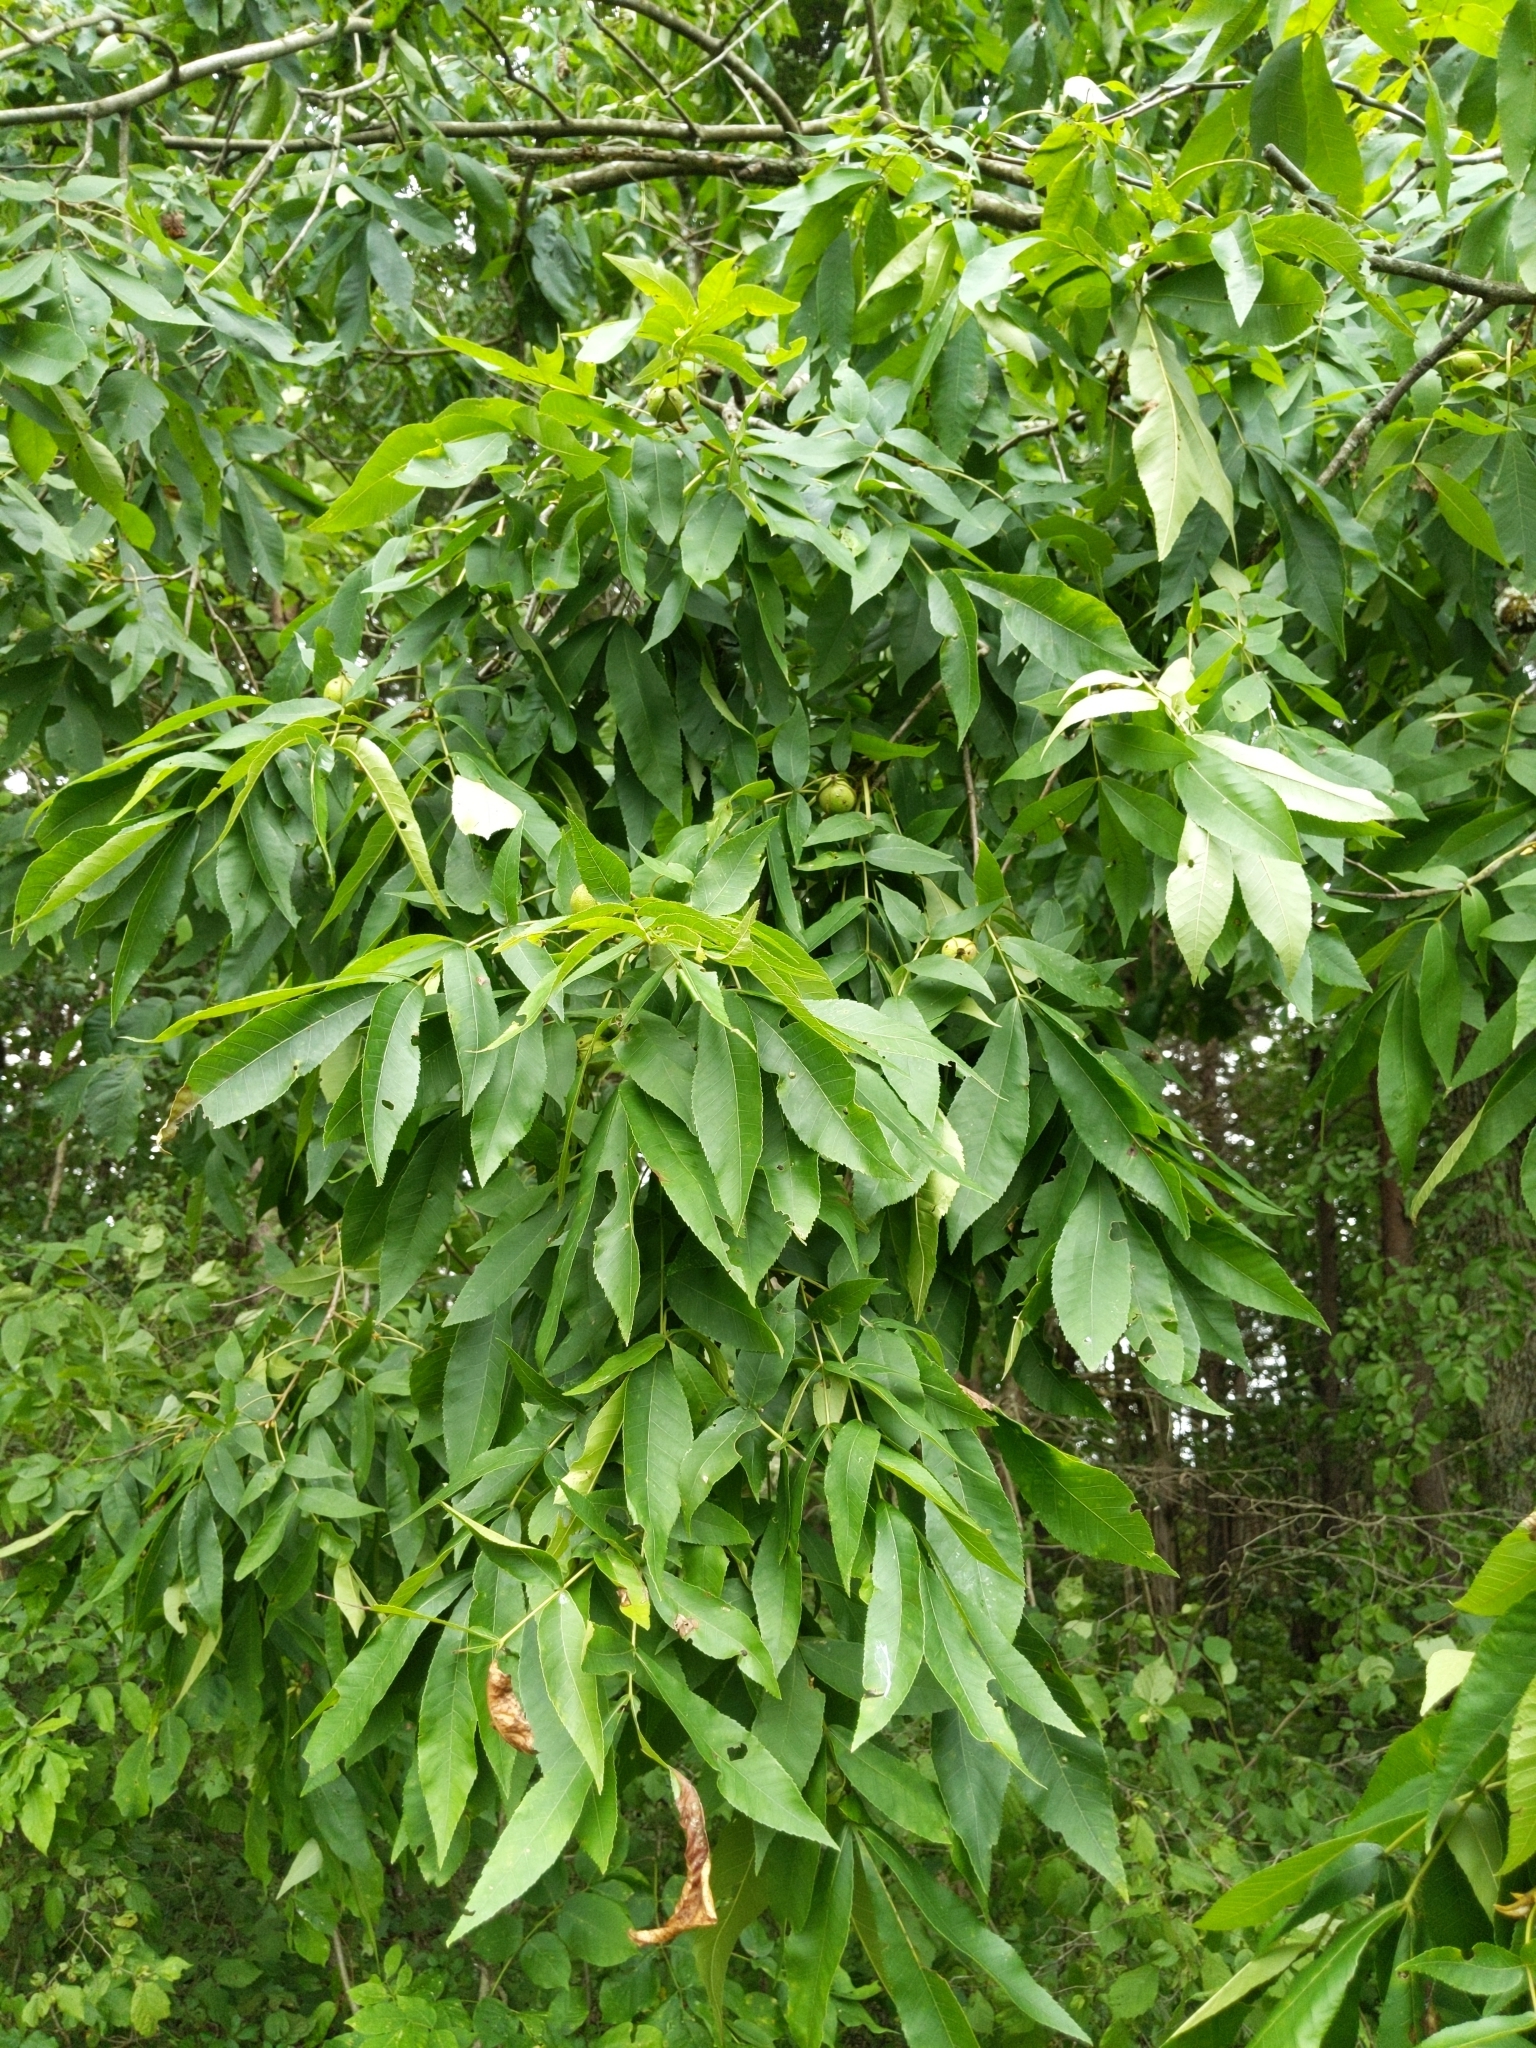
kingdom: Plantae
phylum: Tracheophyta
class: Magnoliopsida
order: Fagales
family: Juglandaceae
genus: Carya
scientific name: Carya cordiformis
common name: Bitternut hickory
